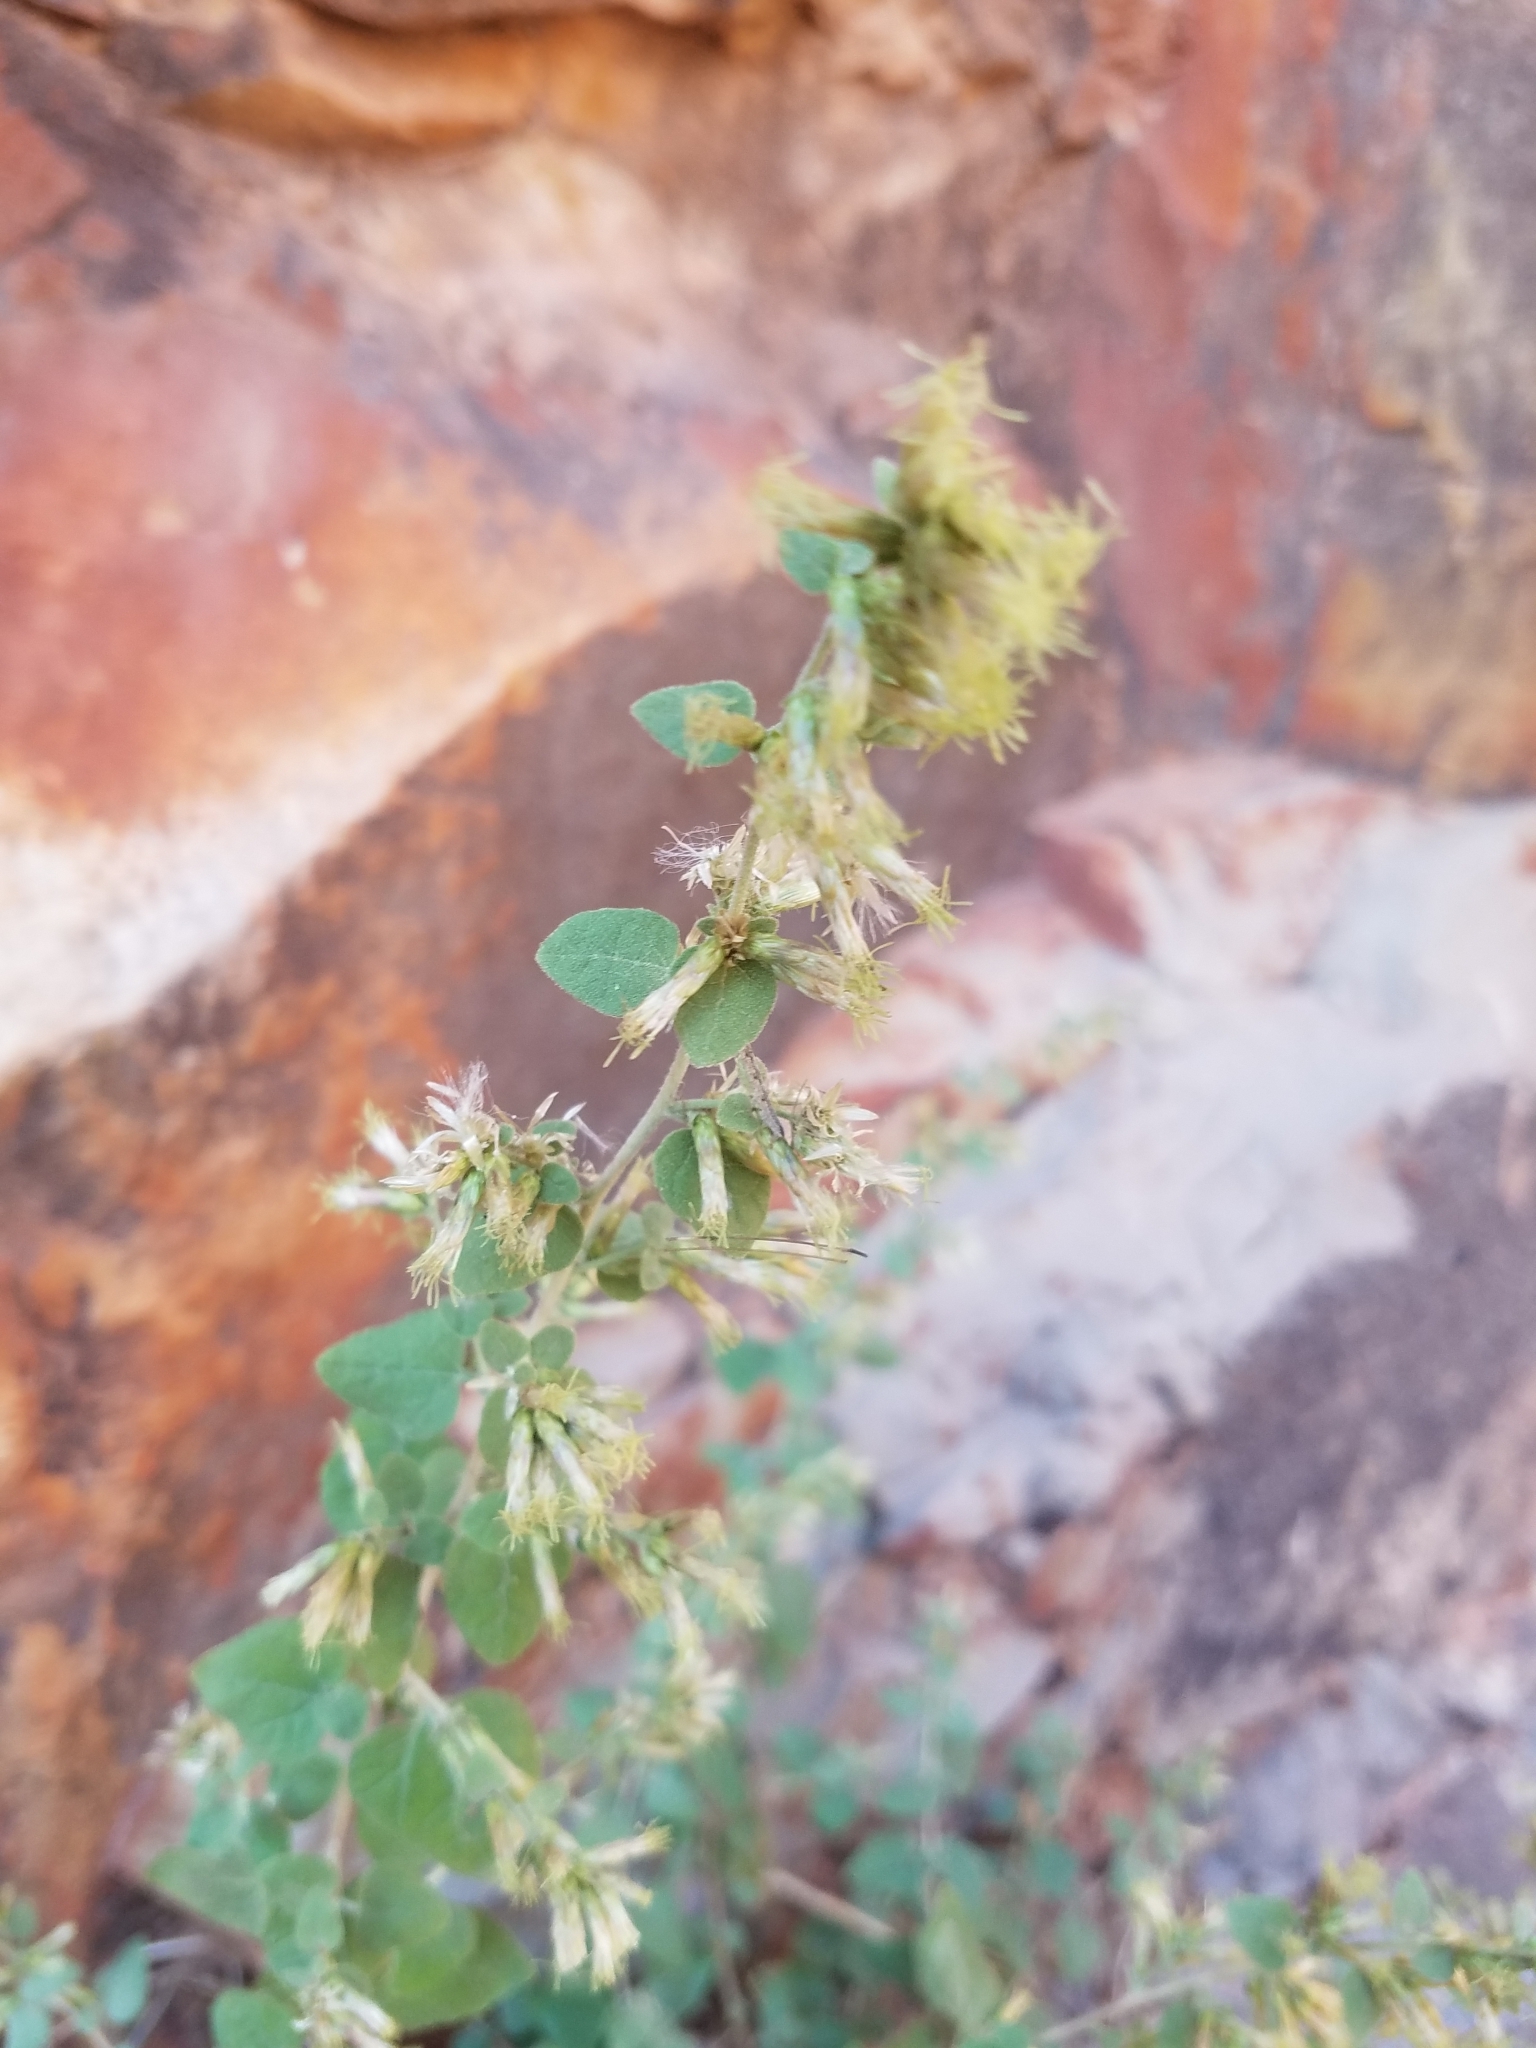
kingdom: Plantae
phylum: Tracheophyta
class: Magnoliopsida
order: Asterales
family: Asteraceae
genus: Brickellia
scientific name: Brickellia californica
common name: California brickellbush
